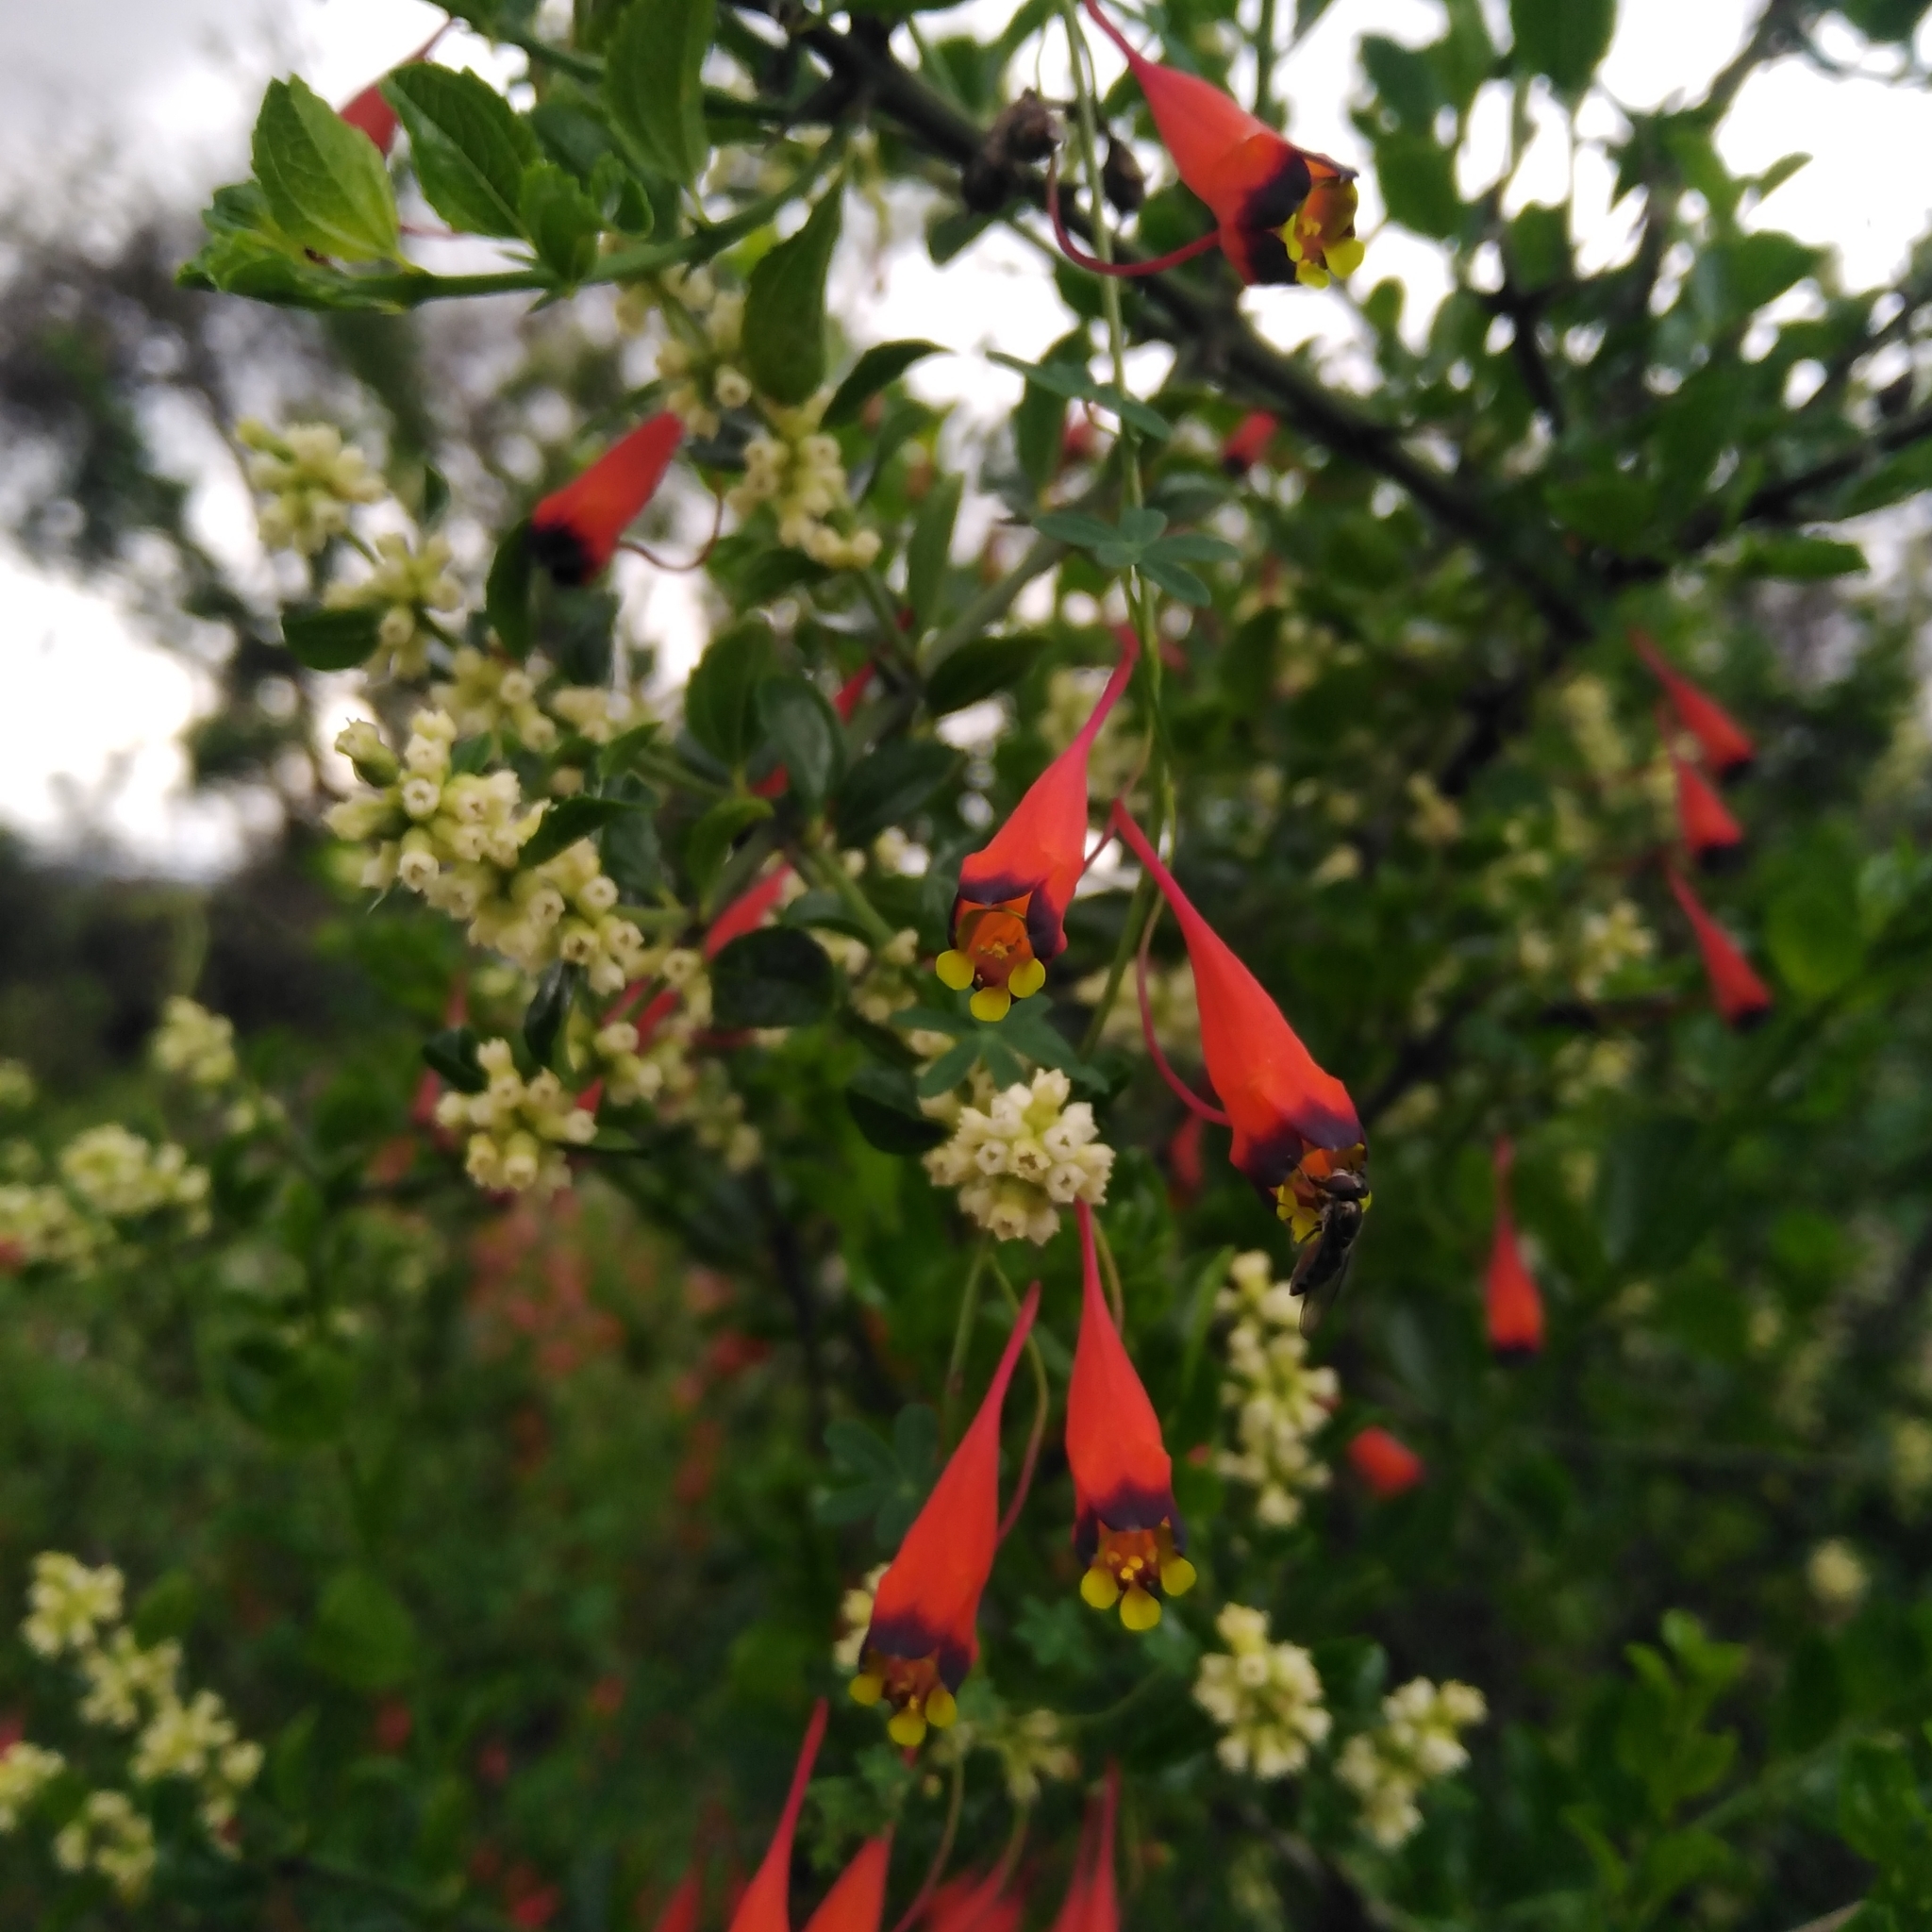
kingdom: Plantae
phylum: Tracheophyta
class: Magnoliopsida
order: Brassicales
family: Tropaeolaceae
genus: Tropaeolum
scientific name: Tropaeolum tricolor
